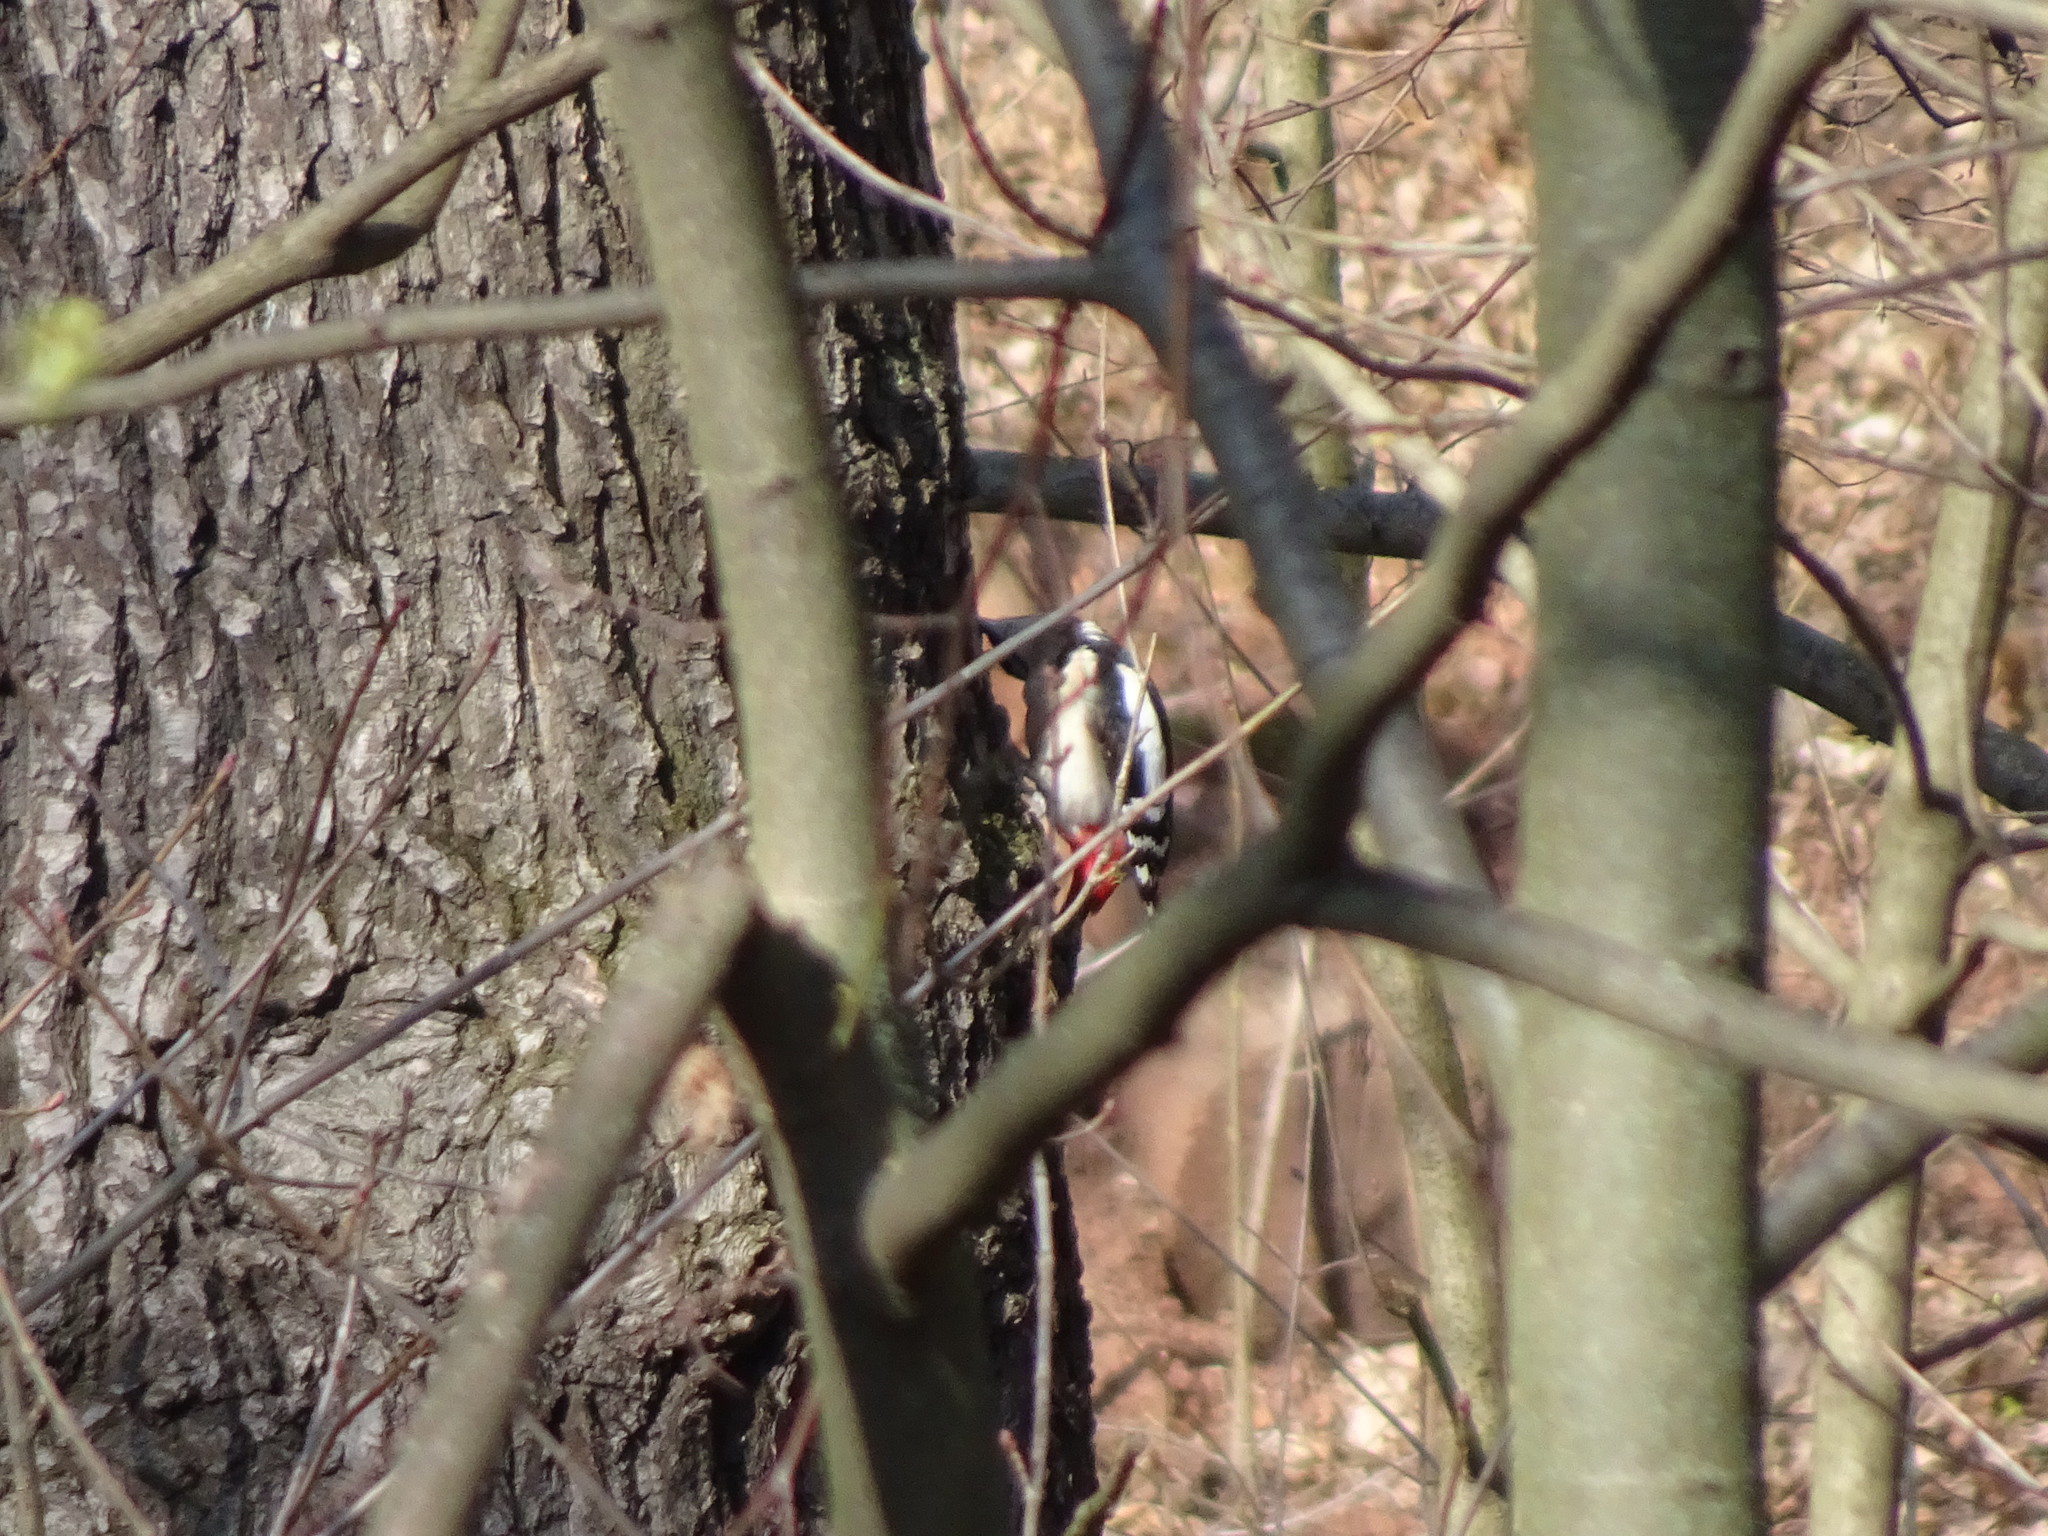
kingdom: Animalia
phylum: Chordata
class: Aves
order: Piciformes
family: Picidae
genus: Dendrocopos
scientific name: Dendrocopos major
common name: Great spotted woodpecker
